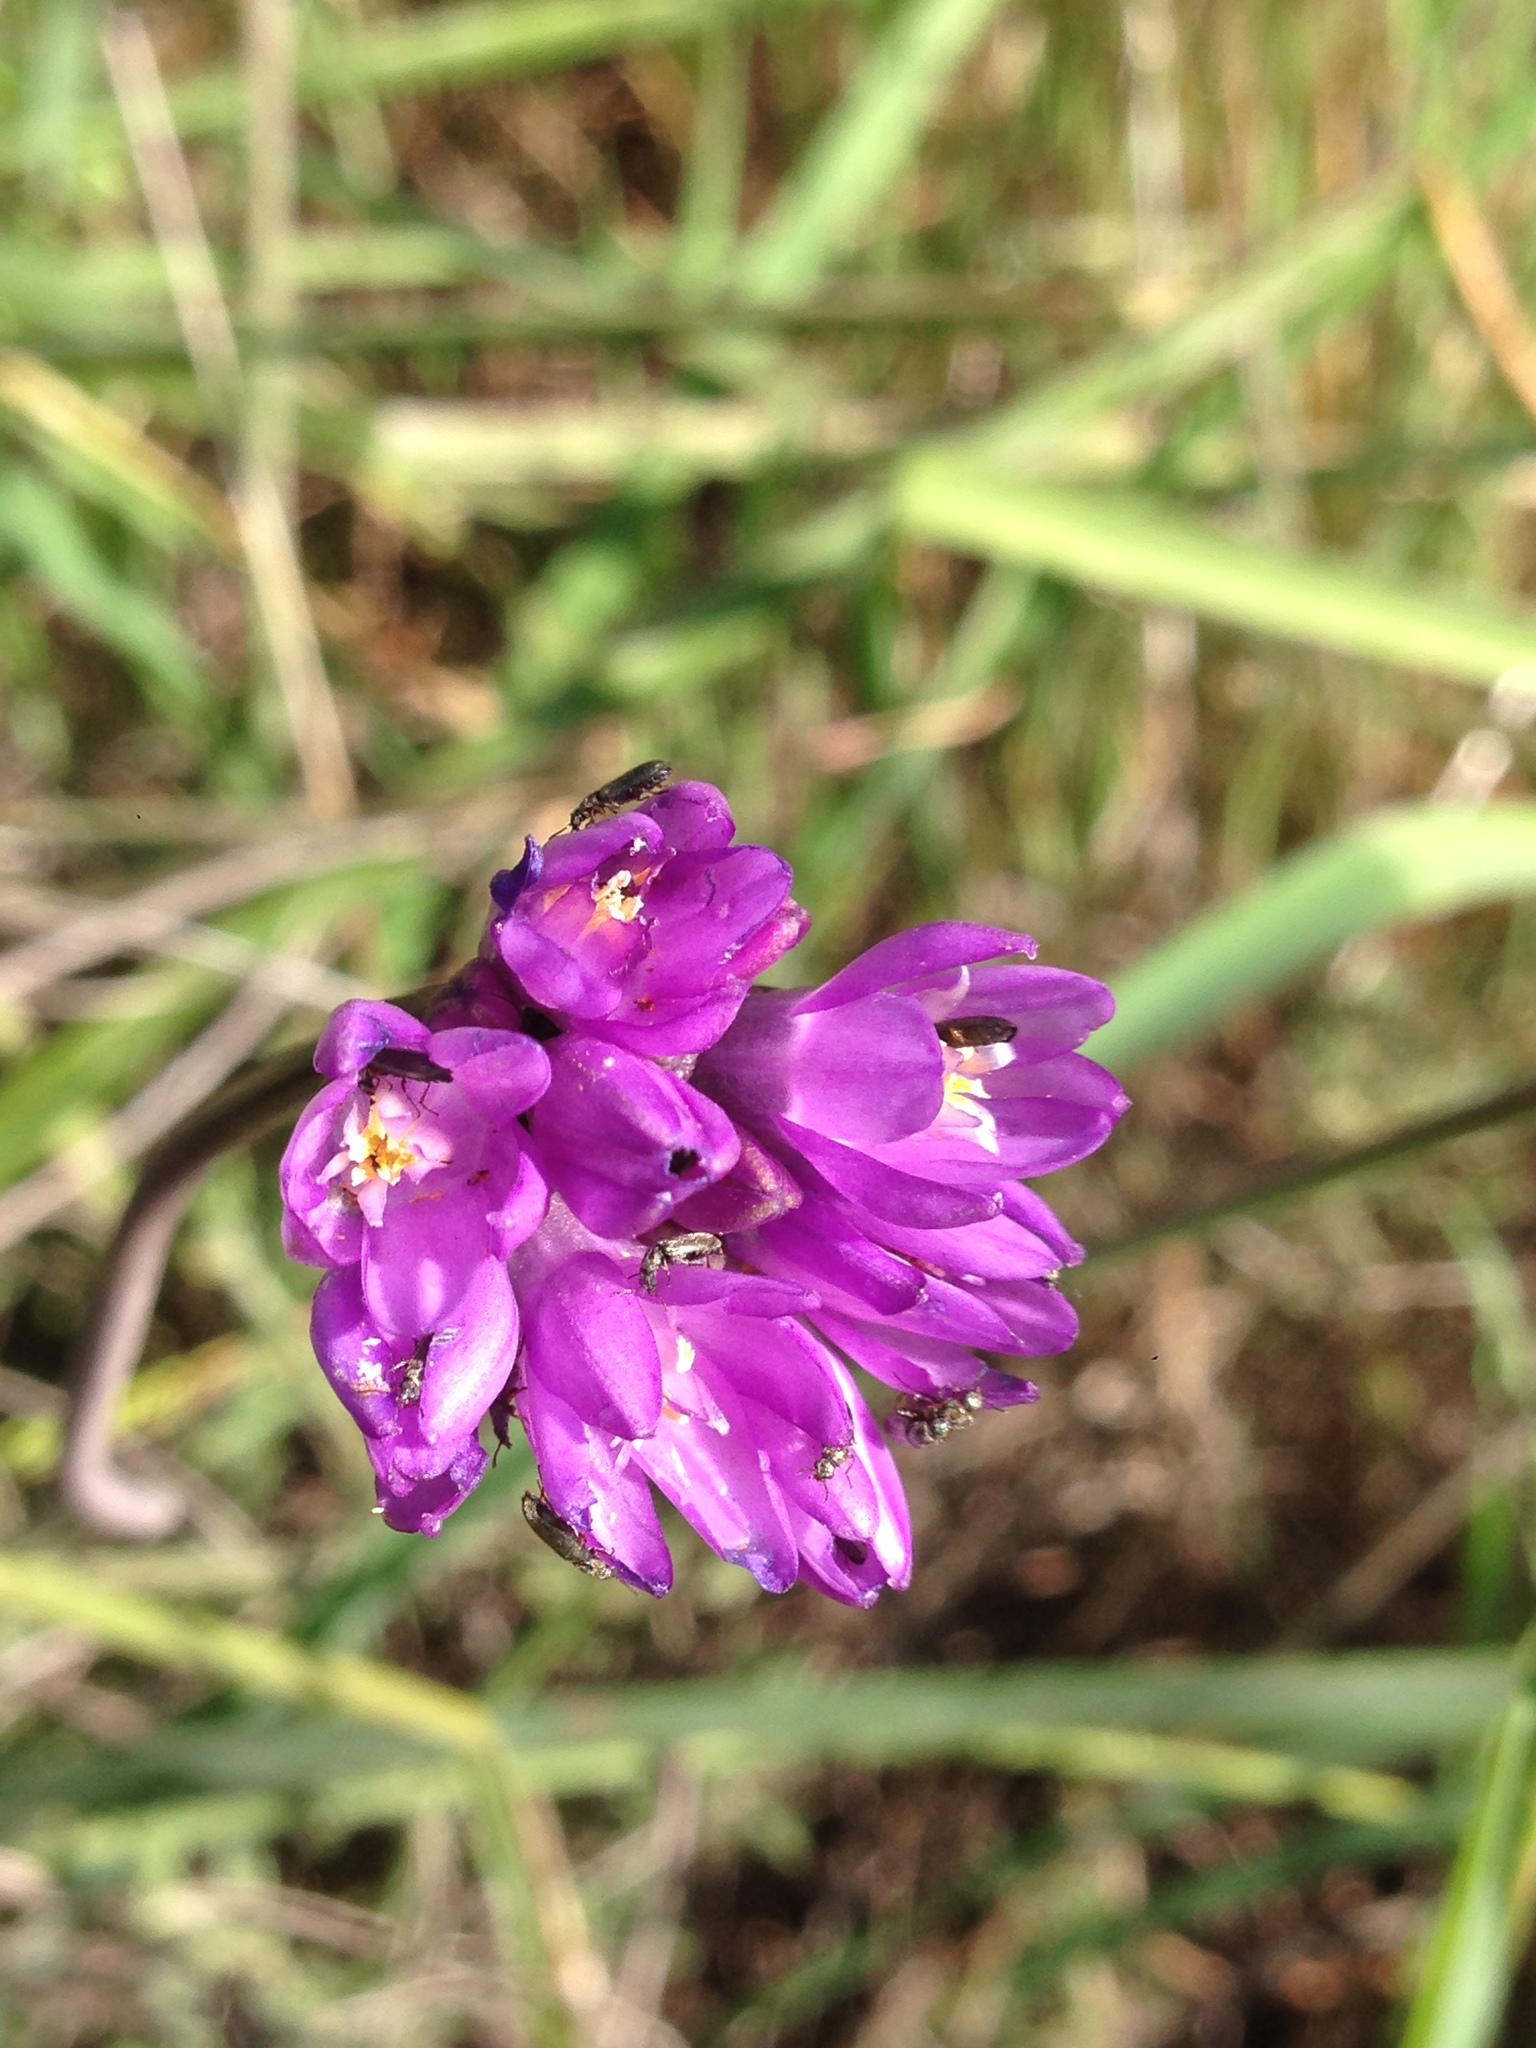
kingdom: Plantae
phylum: Tracheophyta
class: Liliopsida
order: Asparagales
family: Asparagaceae
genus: Dipterostemon
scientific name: Dipterostemon capitatus
